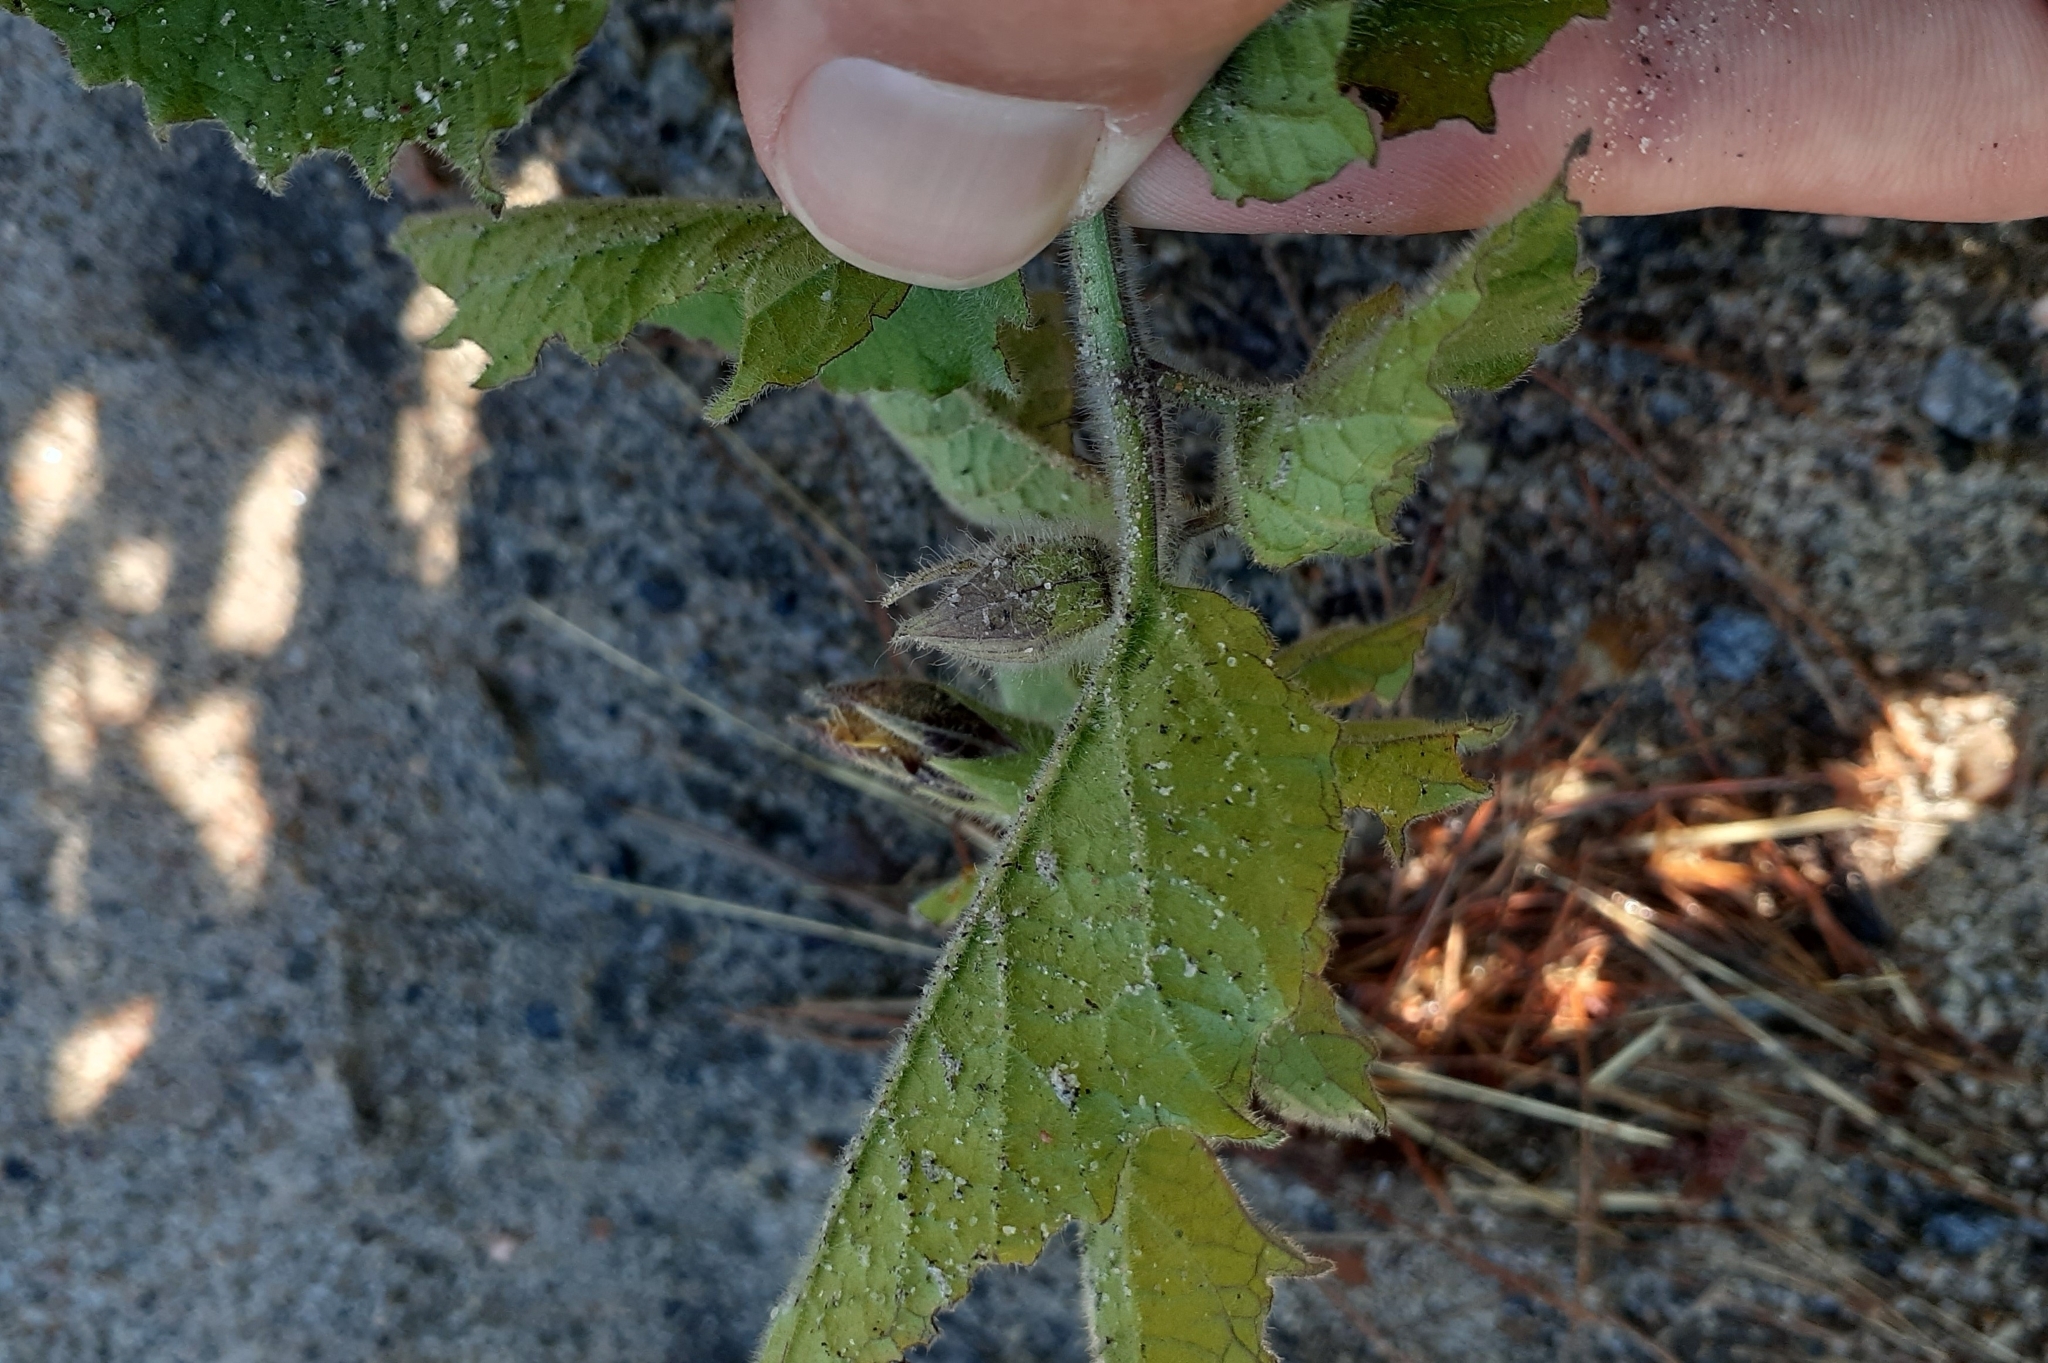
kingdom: Plantae
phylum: Tracheophyta
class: Magnoliopsida
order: Solanales
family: Solanaceae
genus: Physalis
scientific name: Physalis heterophylla
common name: Clammy ground-cherry
